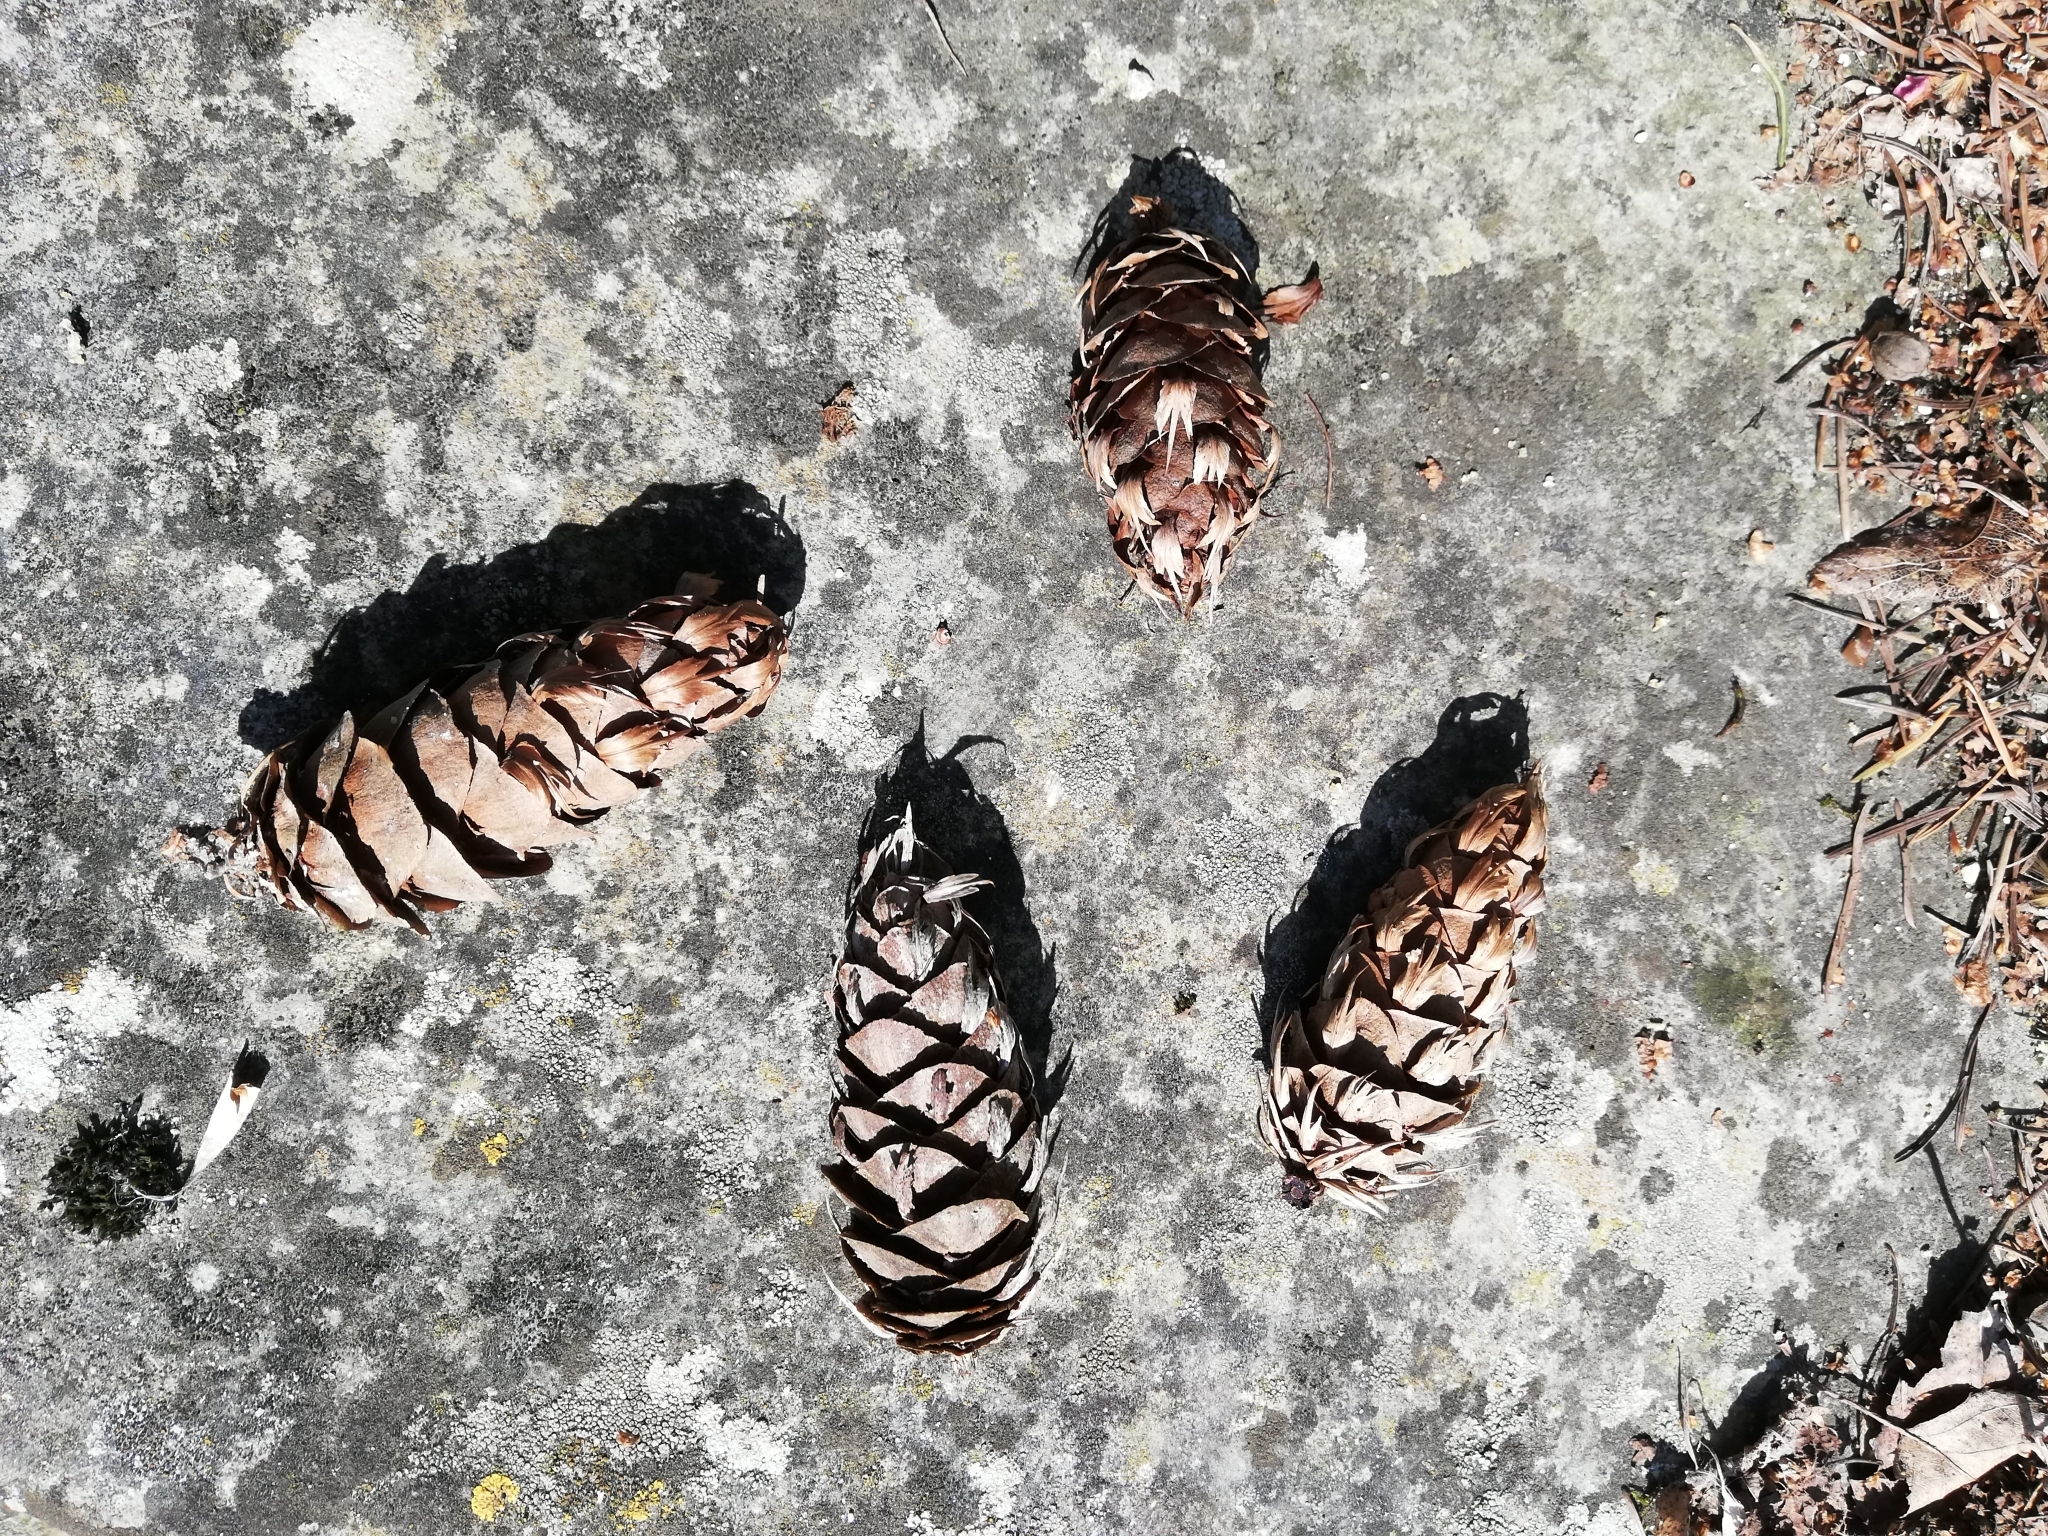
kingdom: Plantae
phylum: Tracheophyta
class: Pinopsida
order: Pinales
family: Pinaceae
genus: Pseudotsuga
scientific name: Pseudotsuga menziesii
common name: Douglas fir
